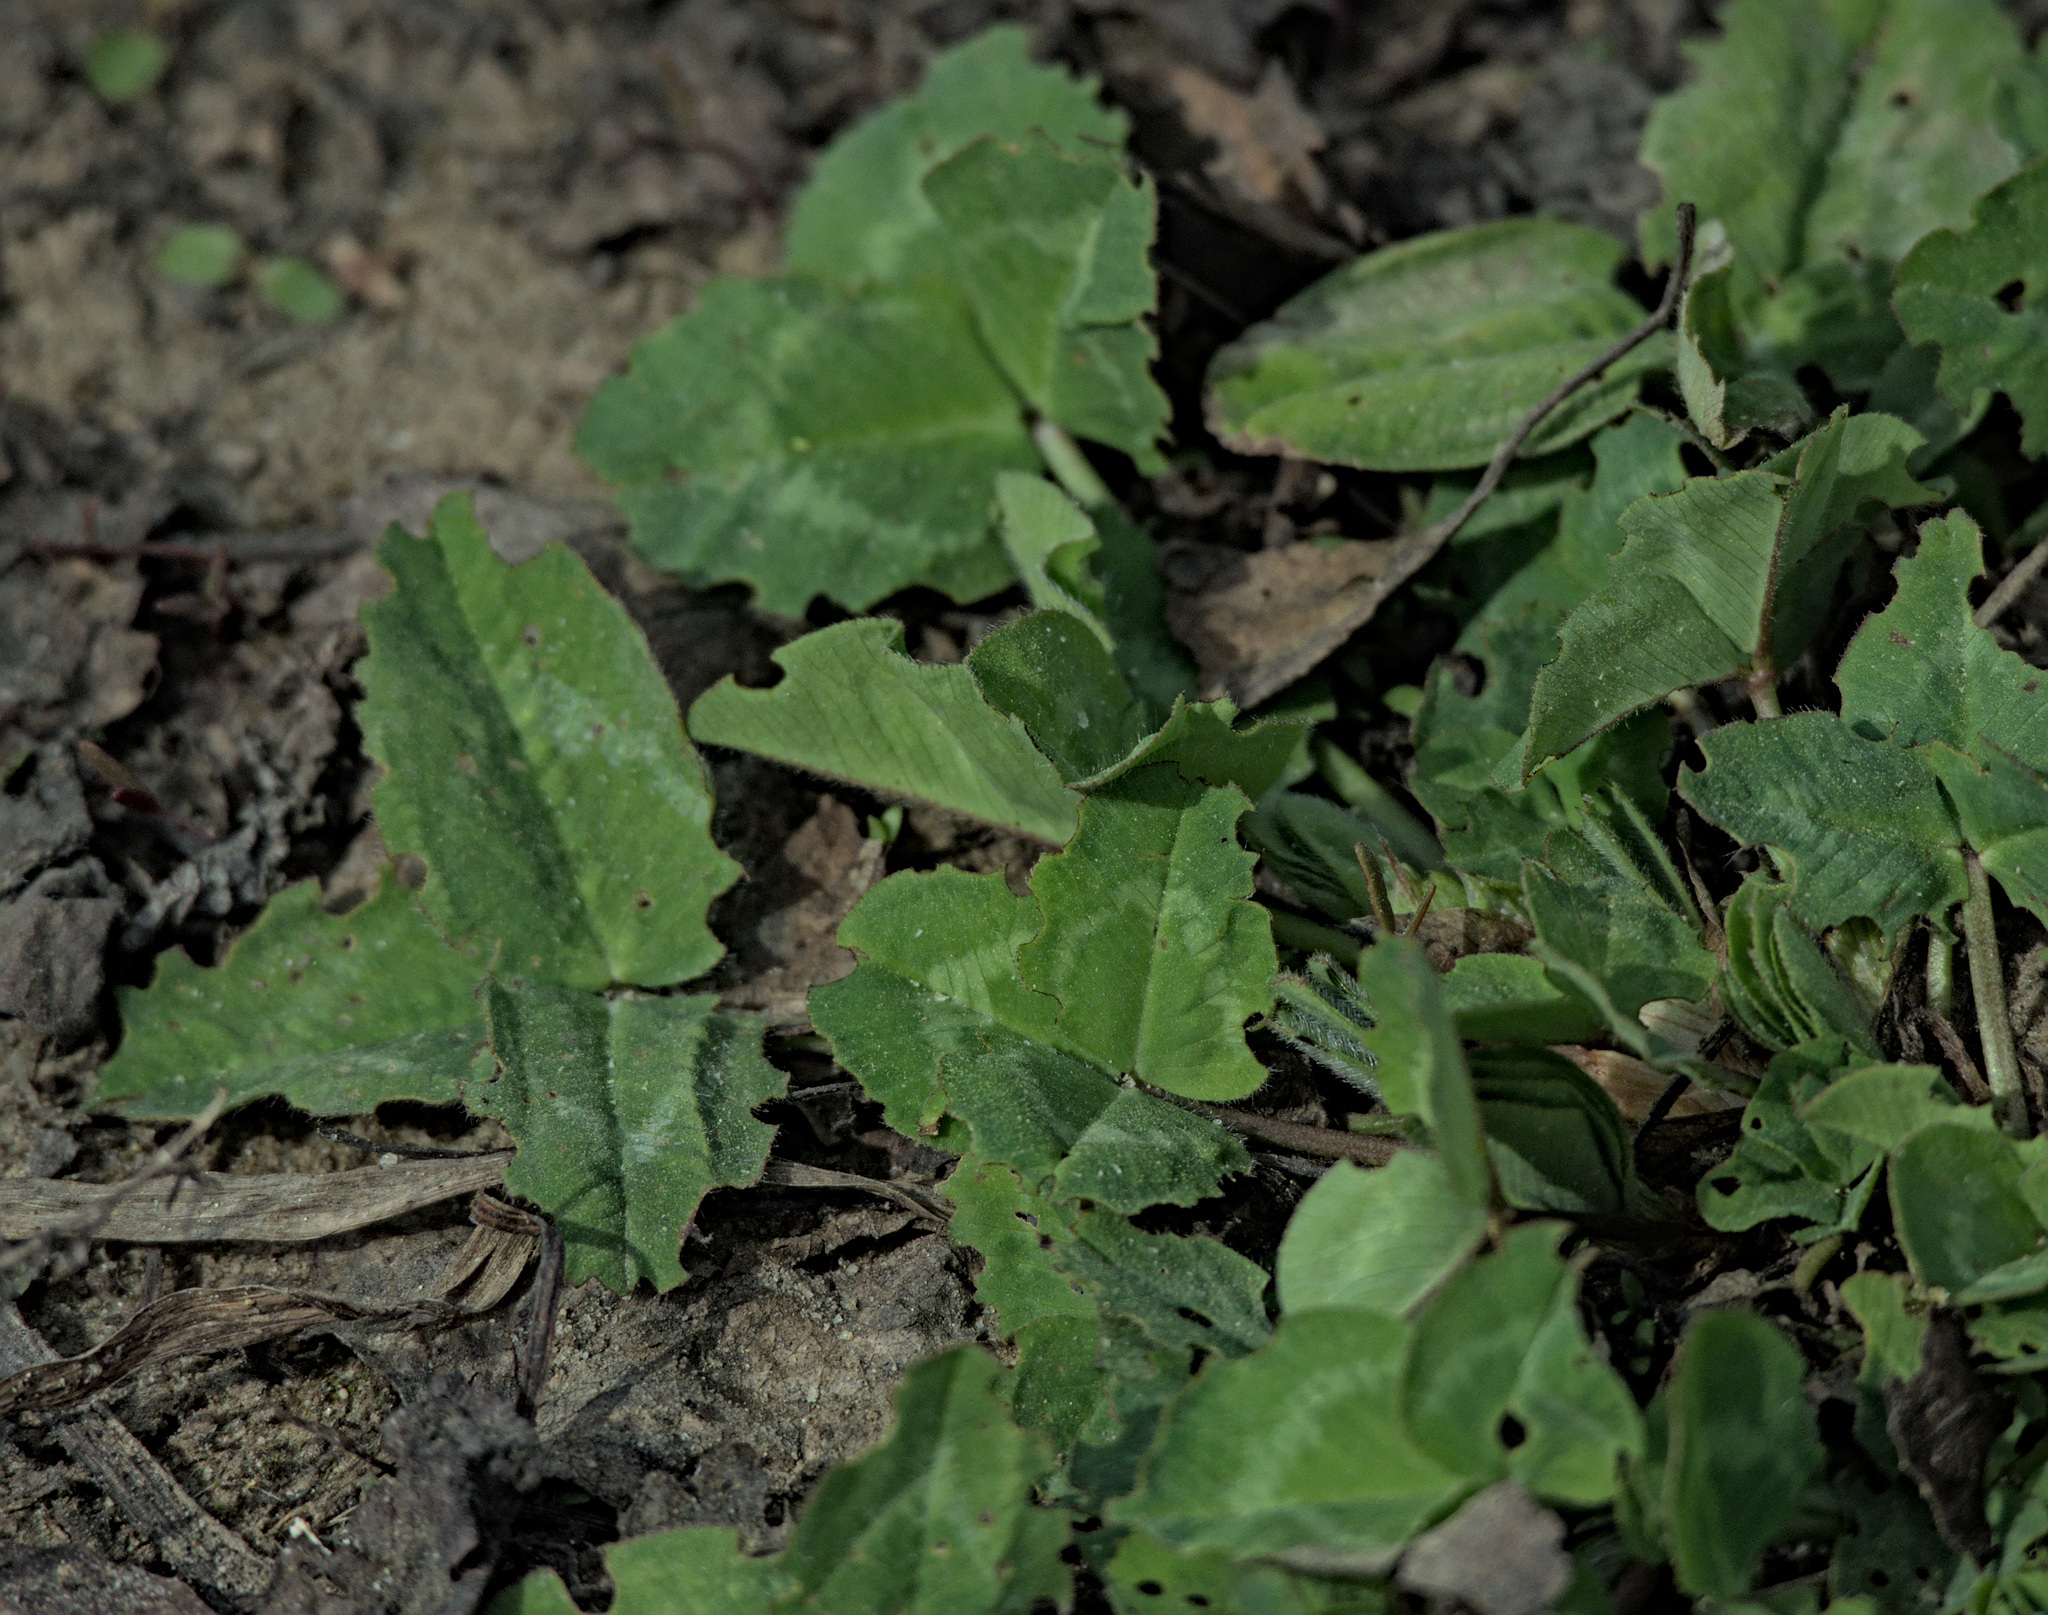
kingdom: Plantae
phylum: Tracheophyta
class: Magnoliopsida
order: Fabales
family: Fabaceae
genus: Trifolium
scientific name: Trifolium pratense
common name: Red clover
